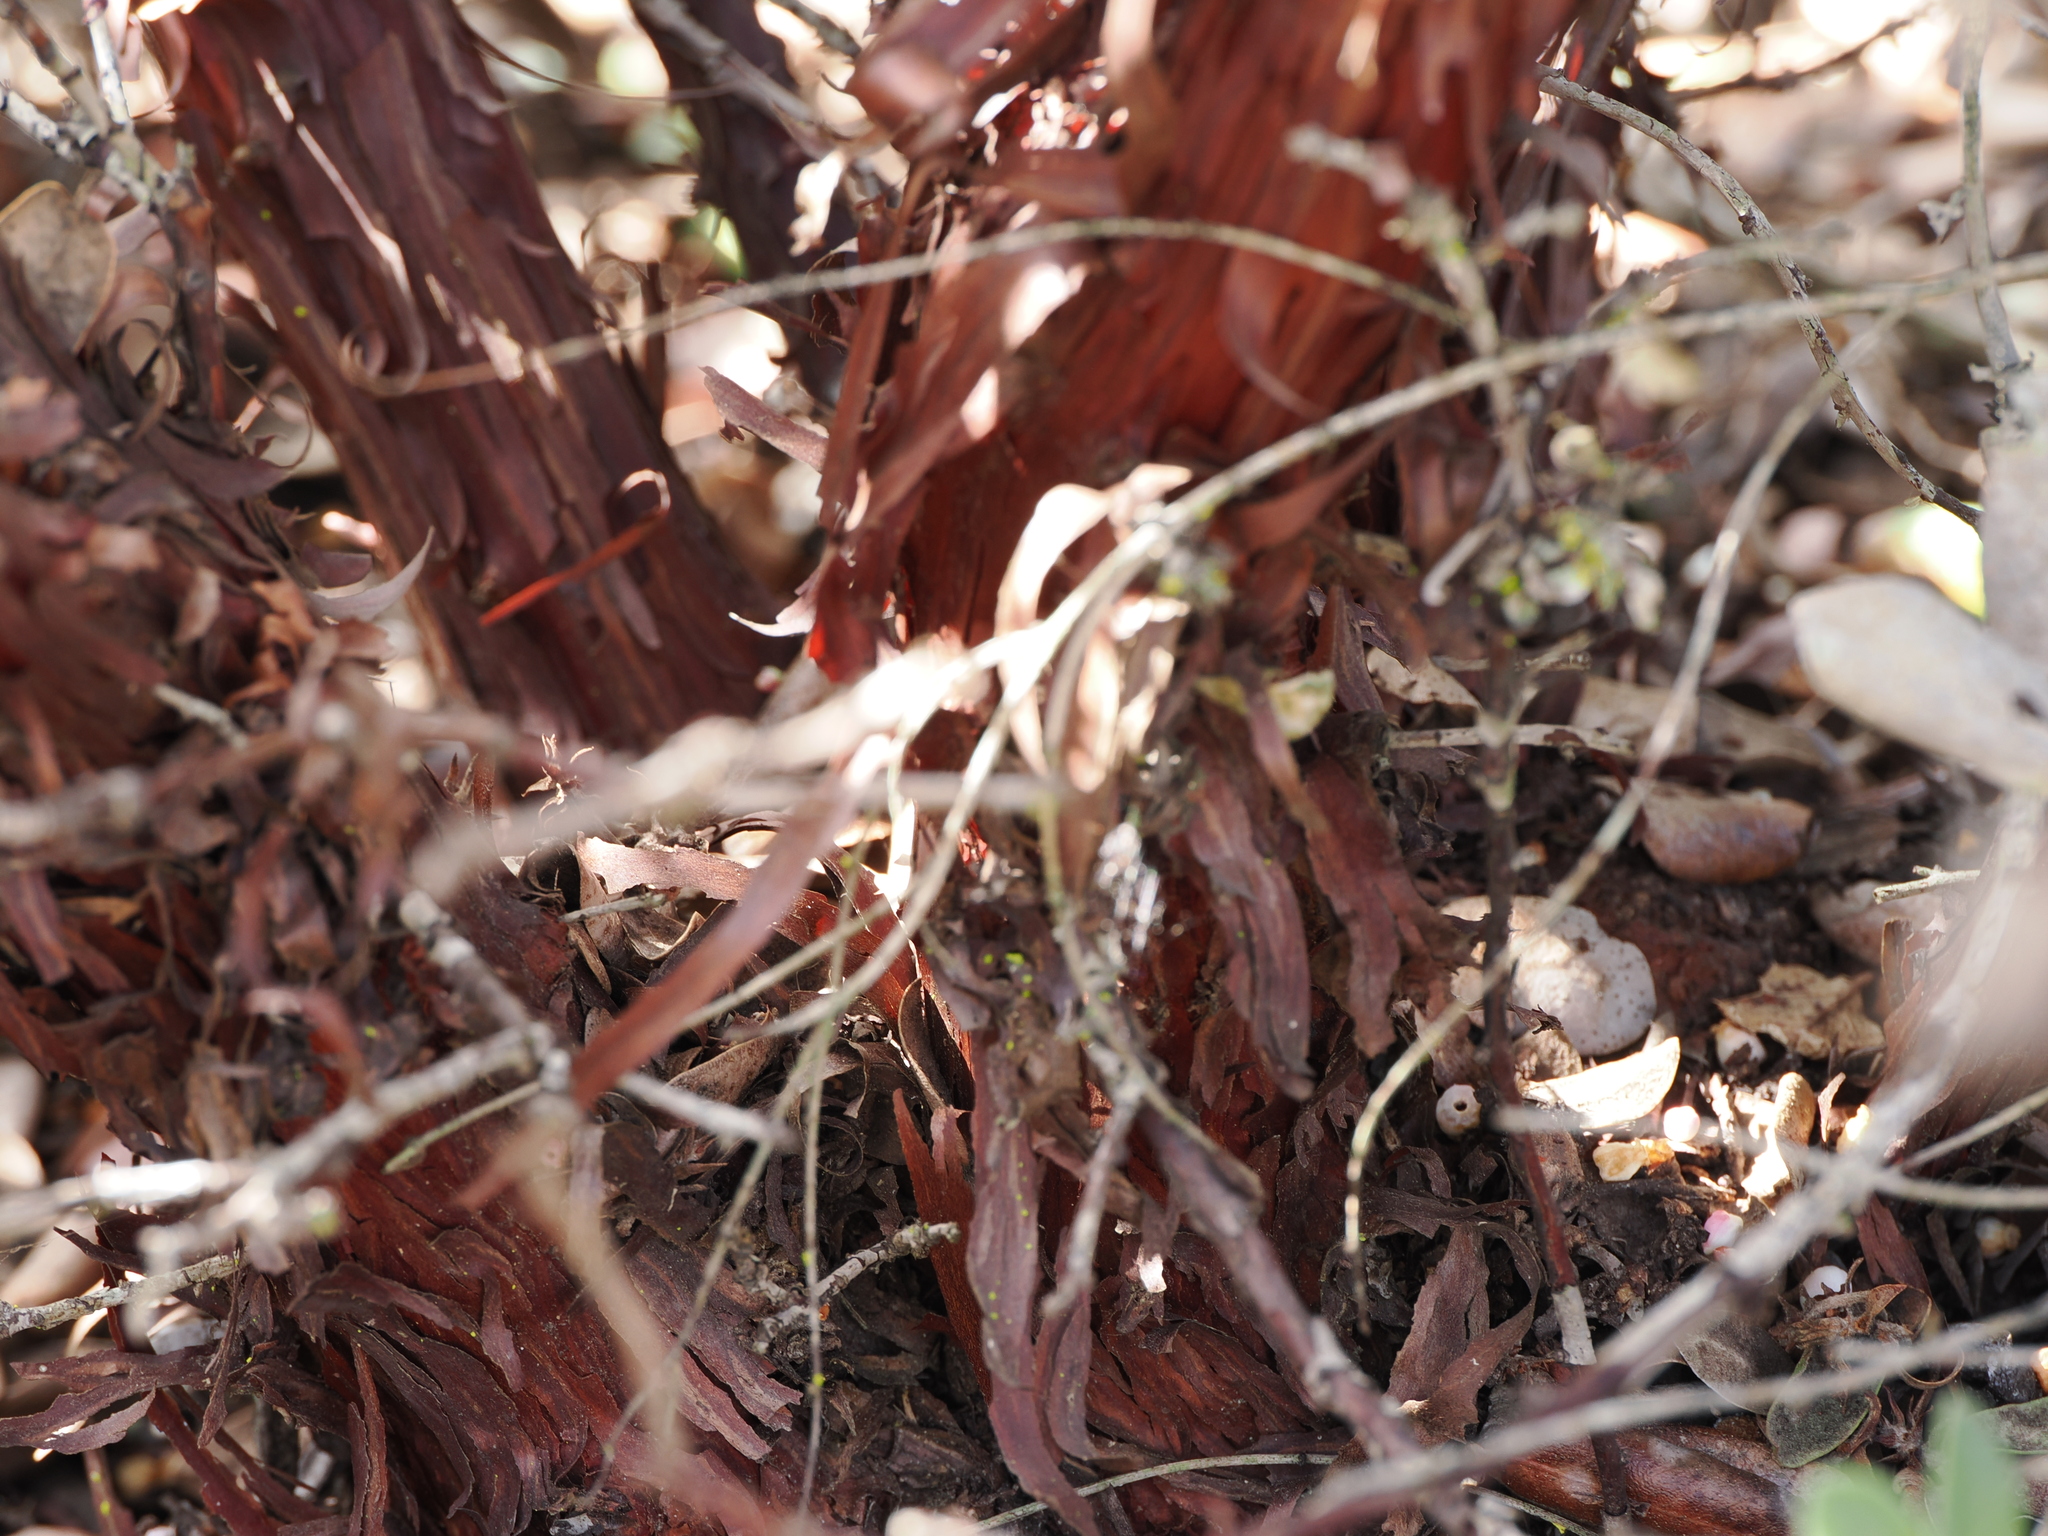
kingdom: Plantae
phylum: Tracheophyta
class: Magnoliopsida
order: Ericales
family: Ericaceae
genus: Arctostaphylos
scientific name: Arctostaphylos tomentosa
